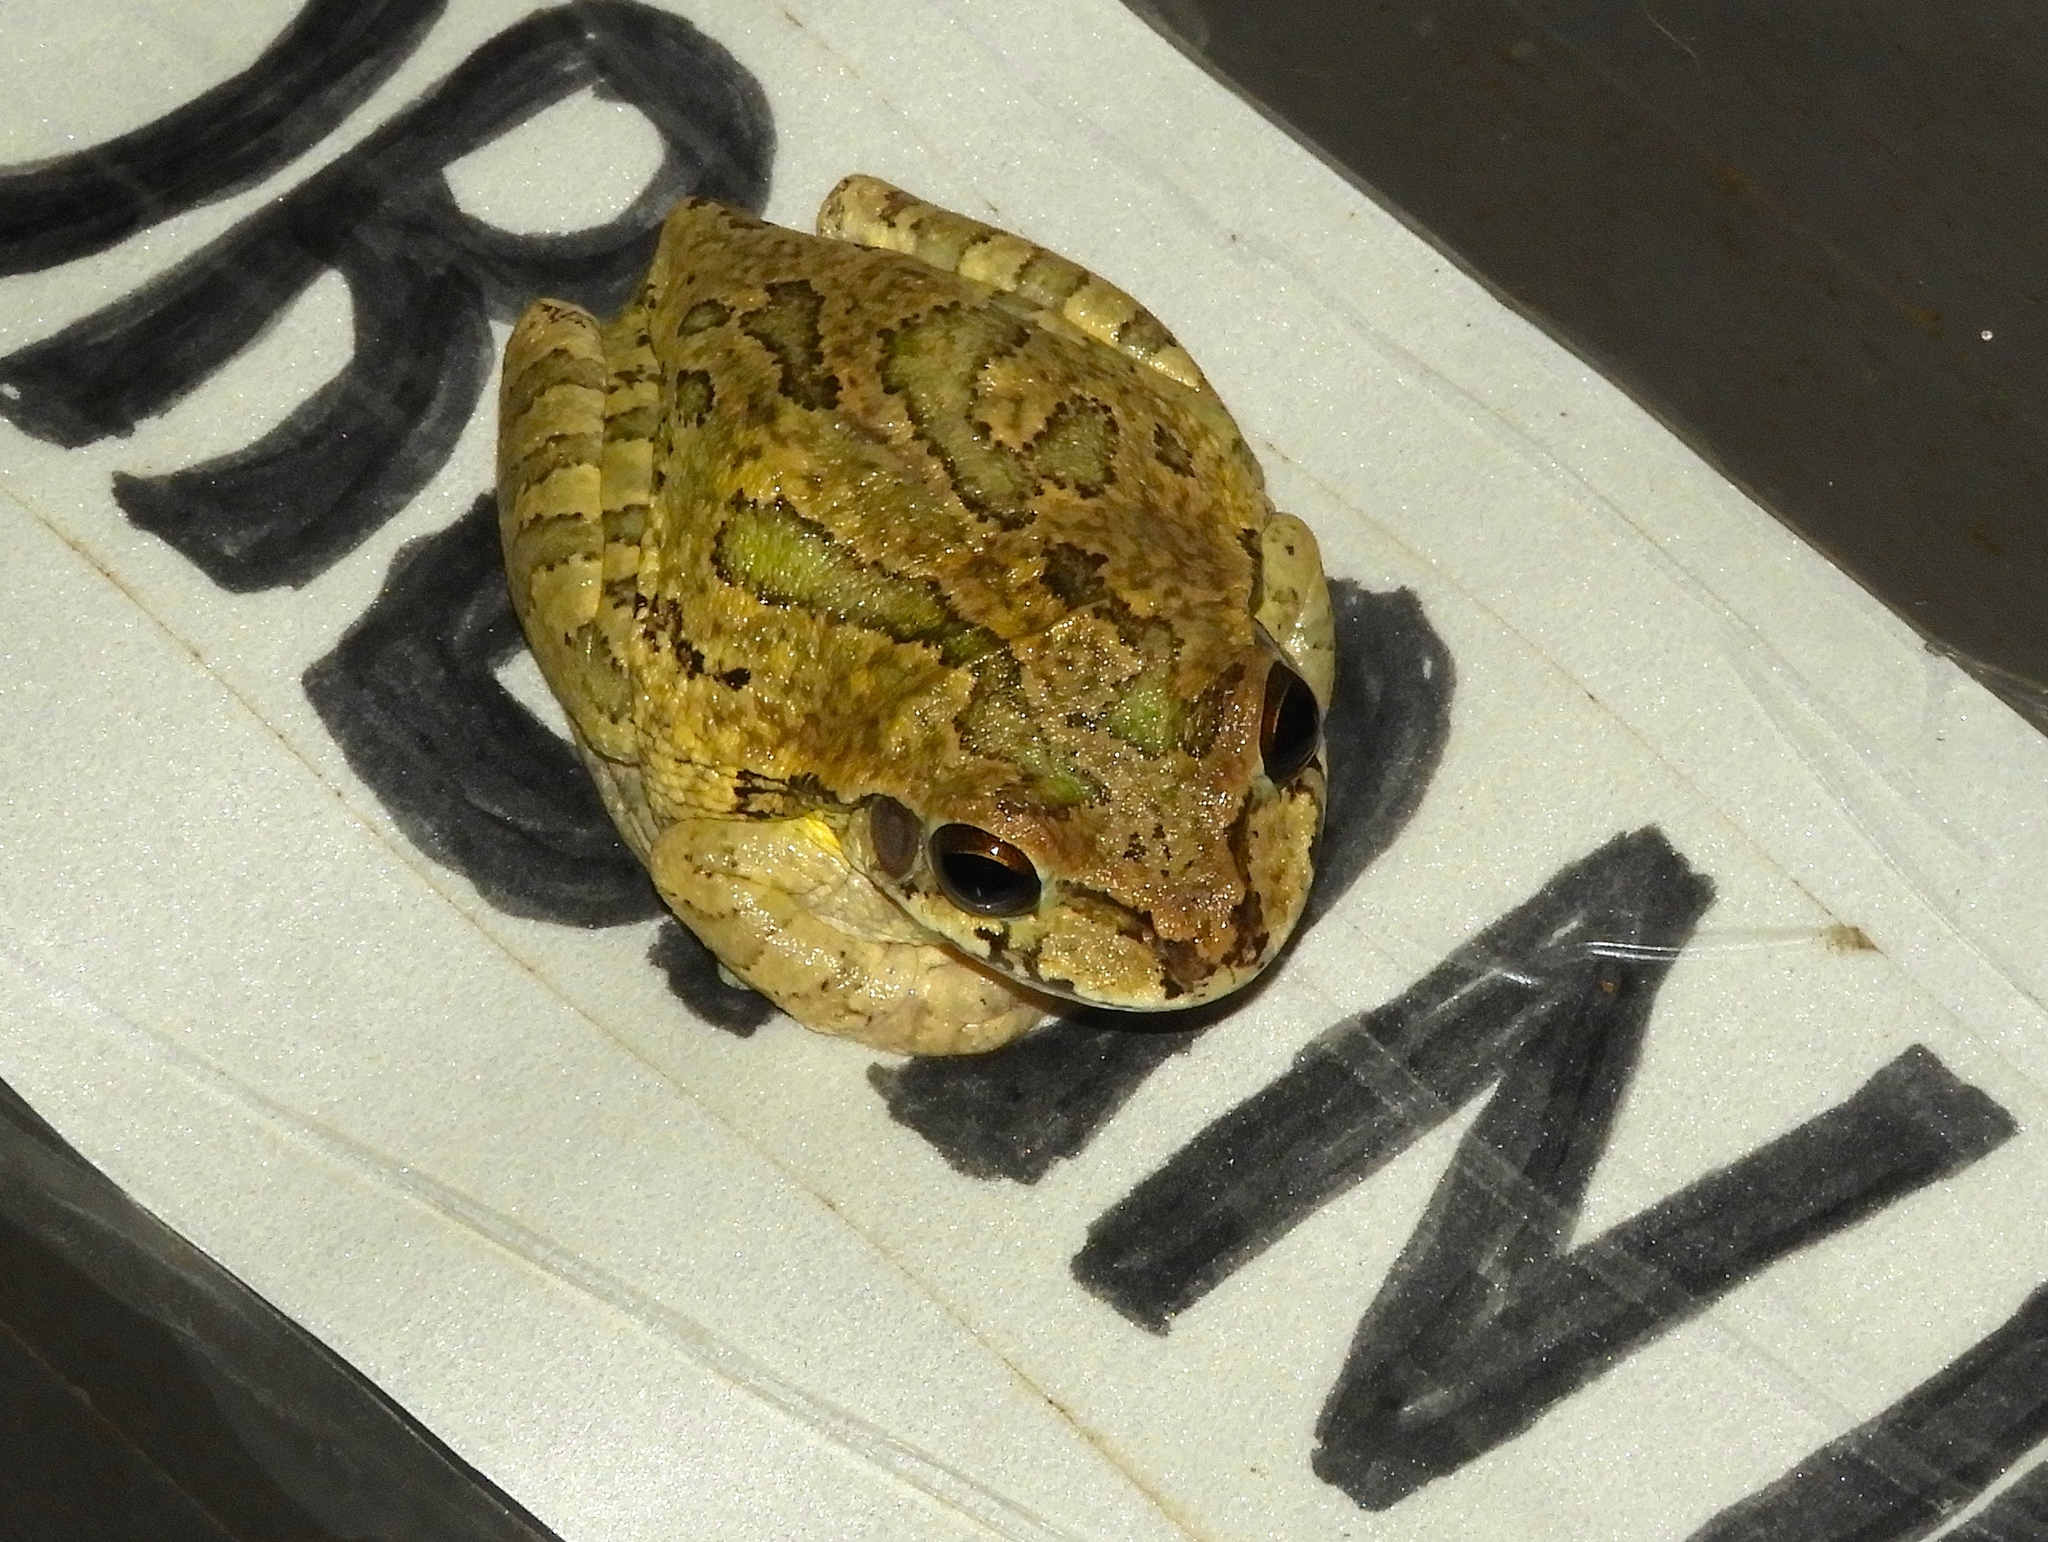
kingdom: Animalia
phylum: Chordata
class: Amphibia
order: Anura
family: Hylidae
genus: Smilisca
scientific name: Smilisca baudinii
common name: Mexican smilisca
